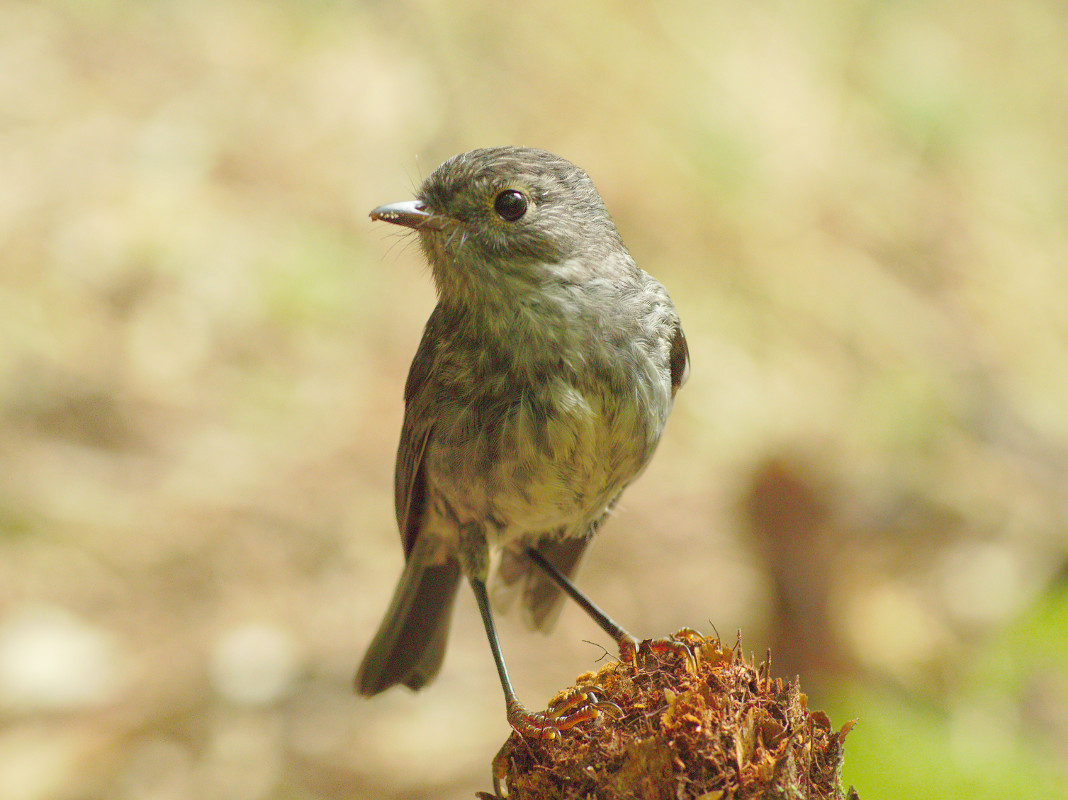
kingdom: Animalia
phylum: Chordata
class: Aves
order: Passeriformes
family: Petroicidae
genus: Petroica
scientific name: Petroica australis
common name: New zealand robin
